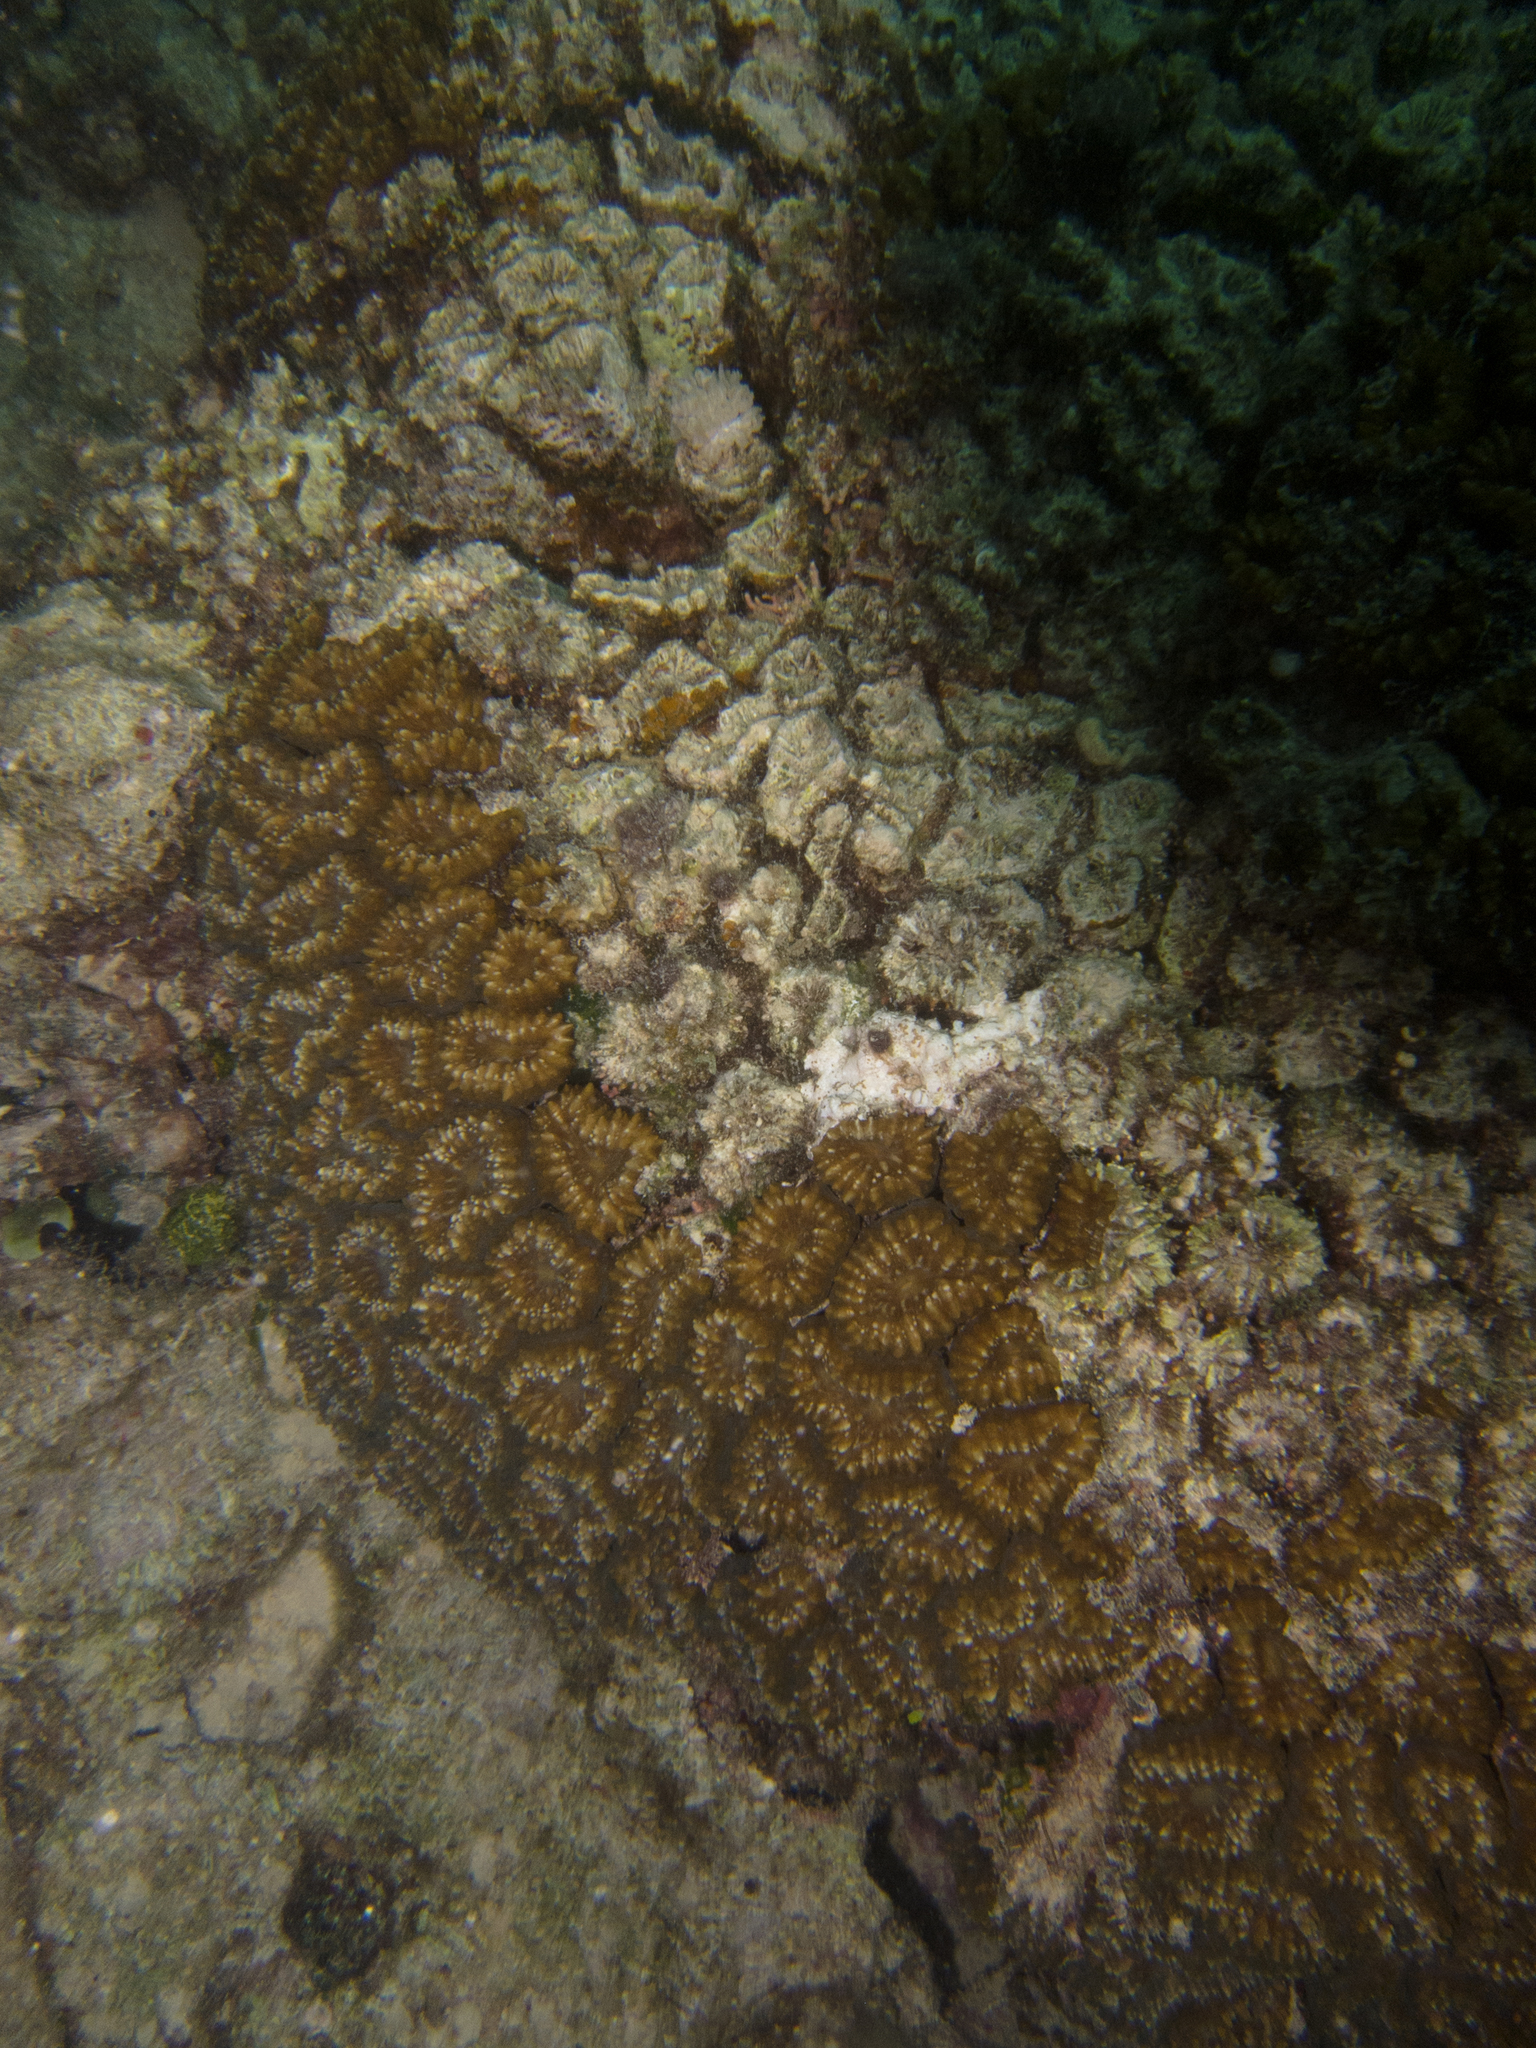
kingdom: Animalia
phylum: Cnidaria
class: Anthozoa
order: Scleractinia
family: Lobophylliidae
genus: Lobophyllia
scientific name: Lobophyllia corymbosa
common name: Lobed cactus coral
